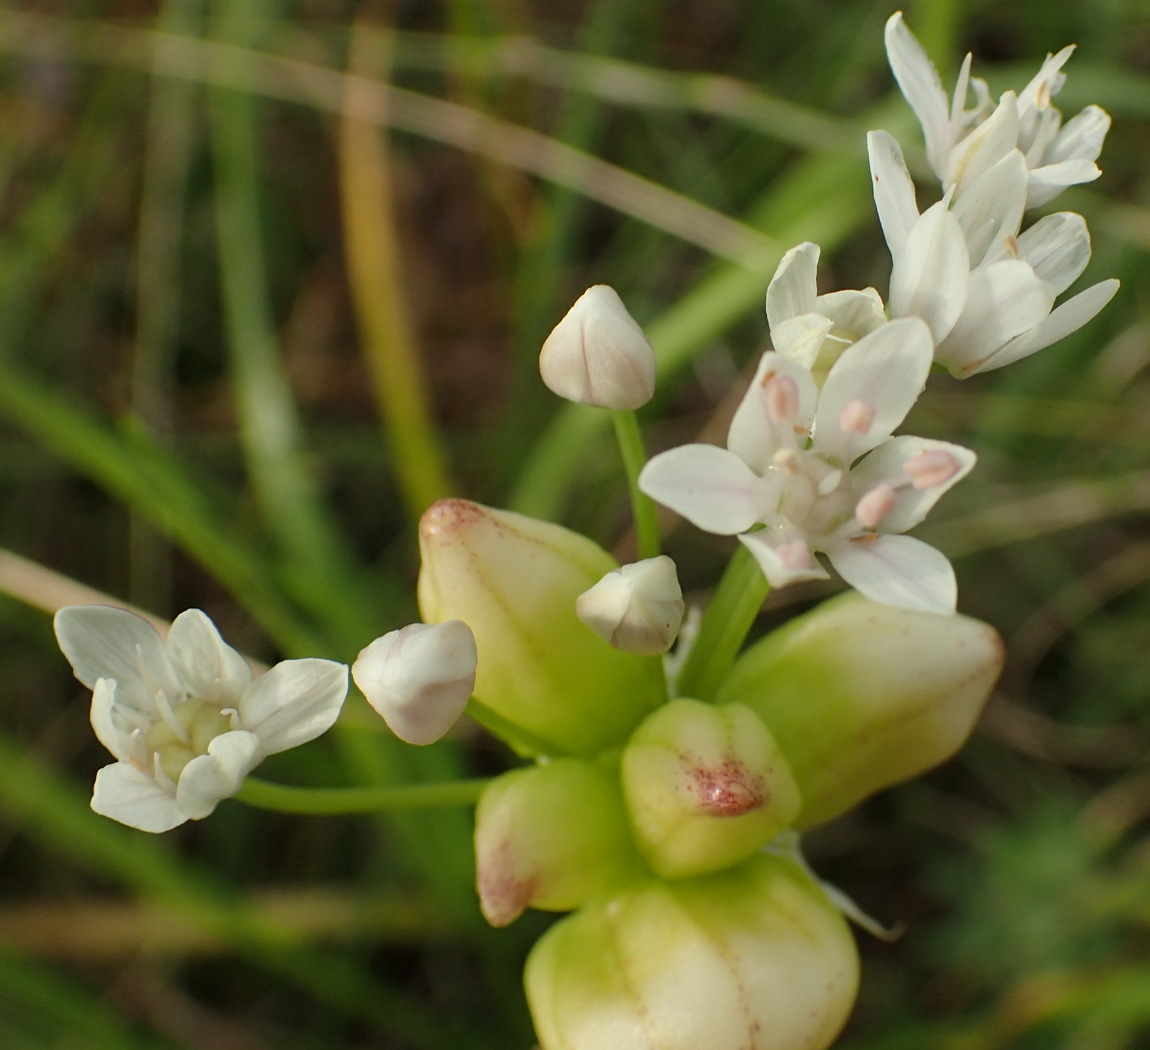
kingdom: Plantae
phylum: Tracheophyta
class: Liliopsida
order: Asparagales
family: Amaryllidaceae
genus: Allium
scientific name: Allium canadense
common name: Meadow garlic
